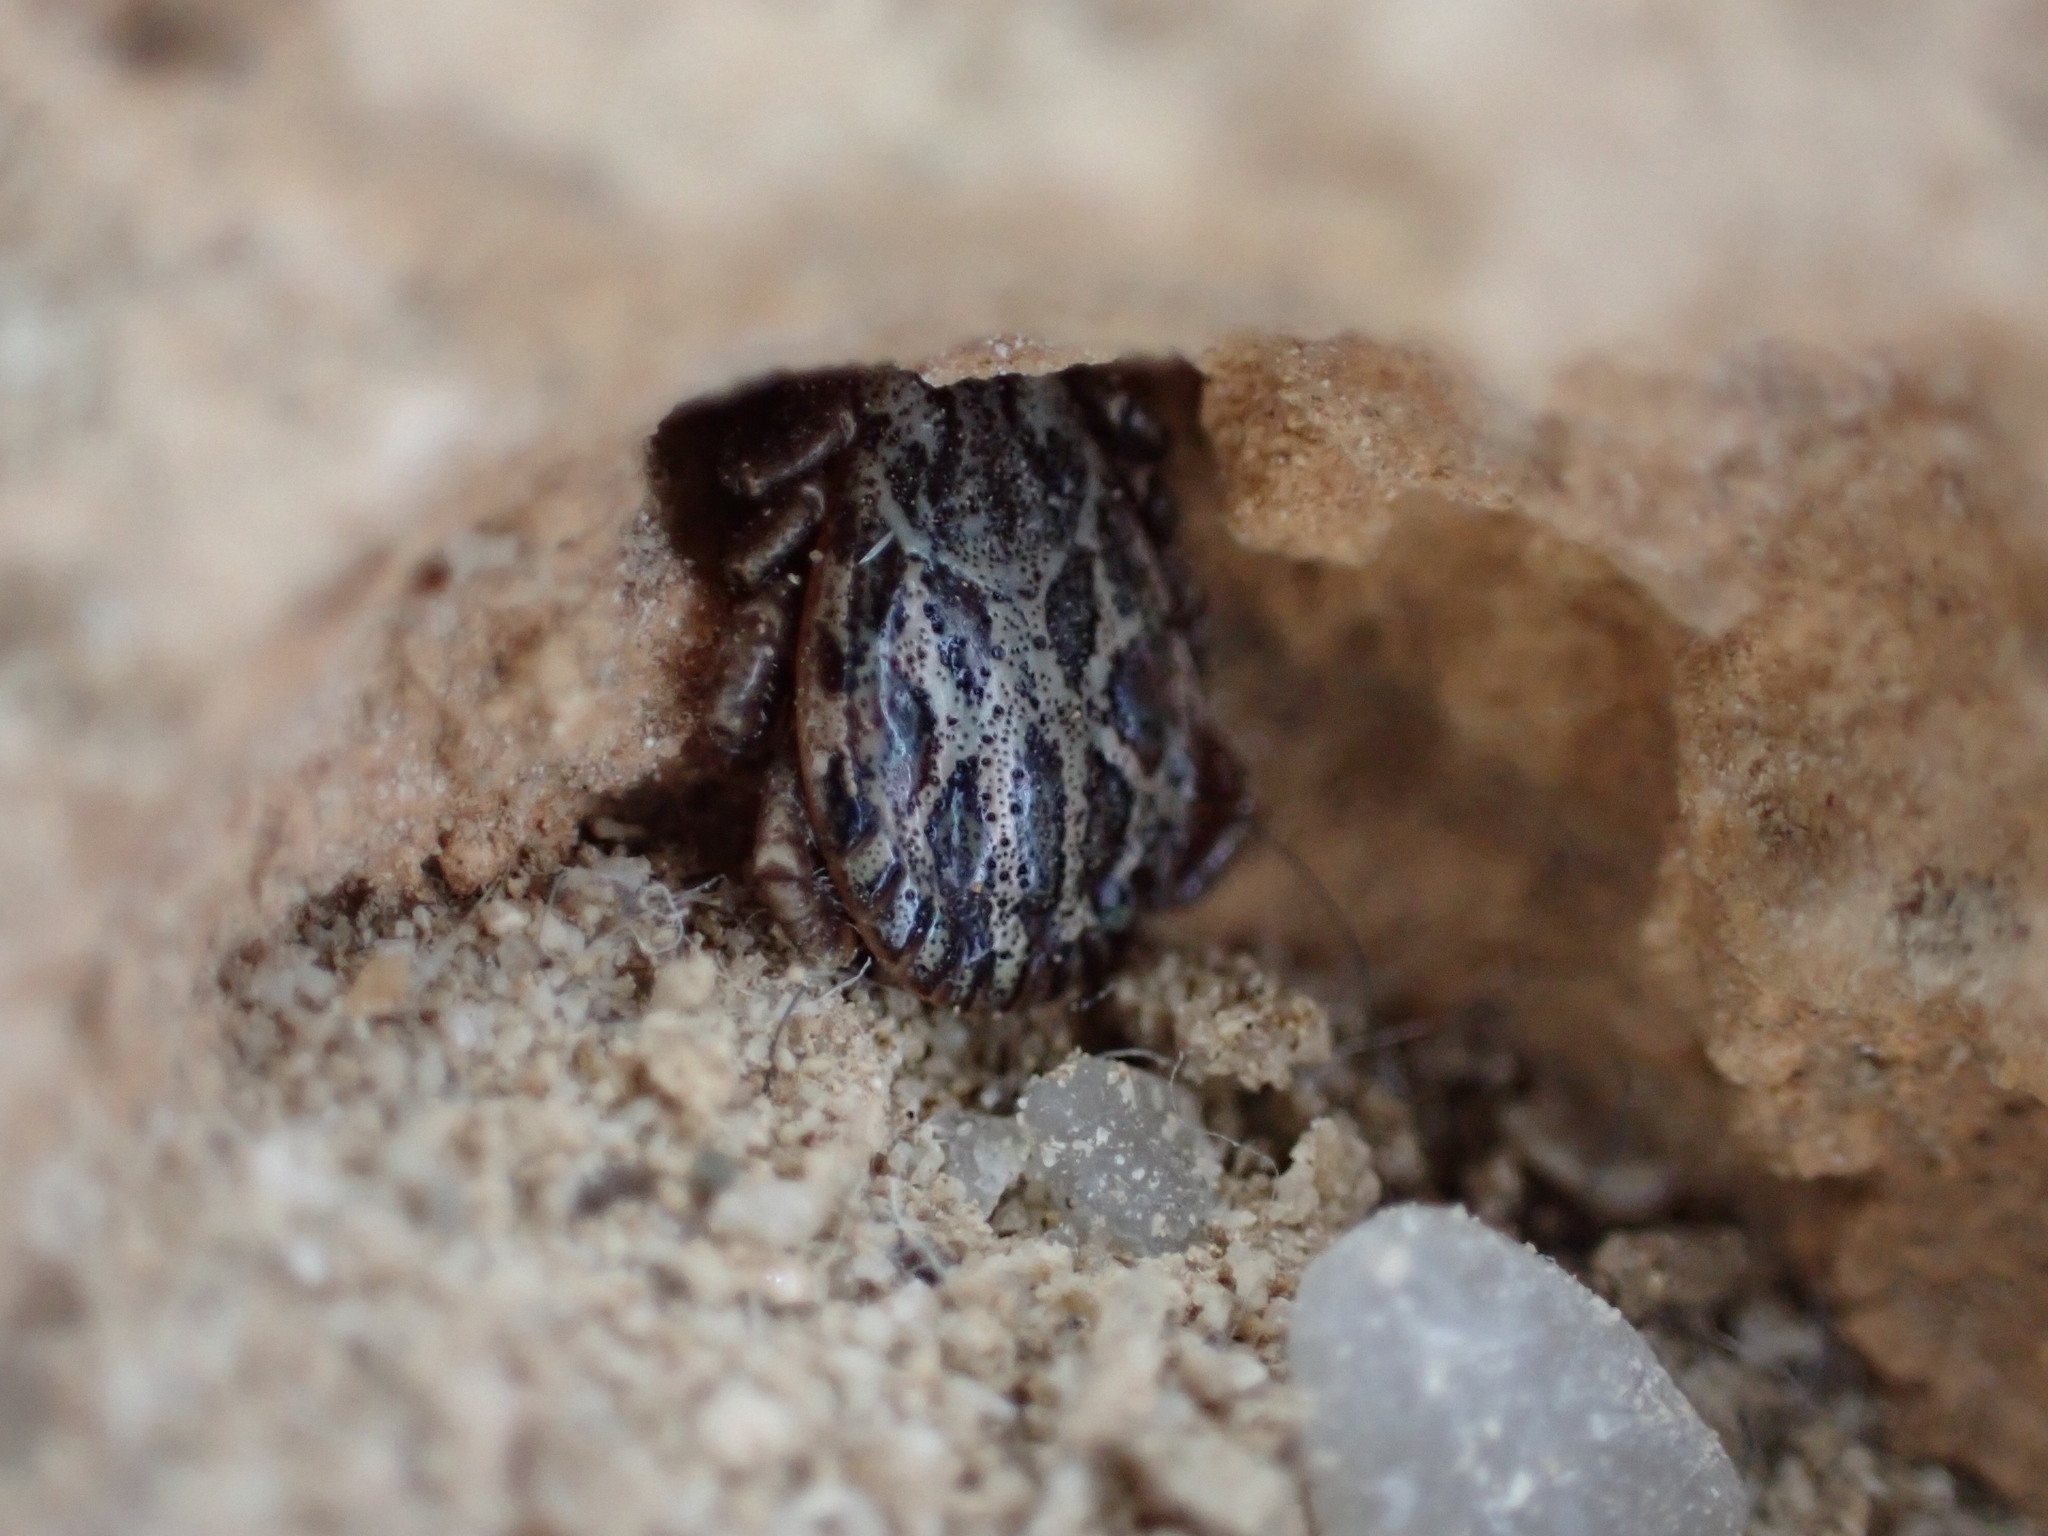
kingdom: Animalia
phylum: Arthropoda
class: Arachnida
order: Ixodida
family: Ixodidae
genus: Dermacentor
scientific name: Dermacentor marginatus
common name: Ornate sheep tick
